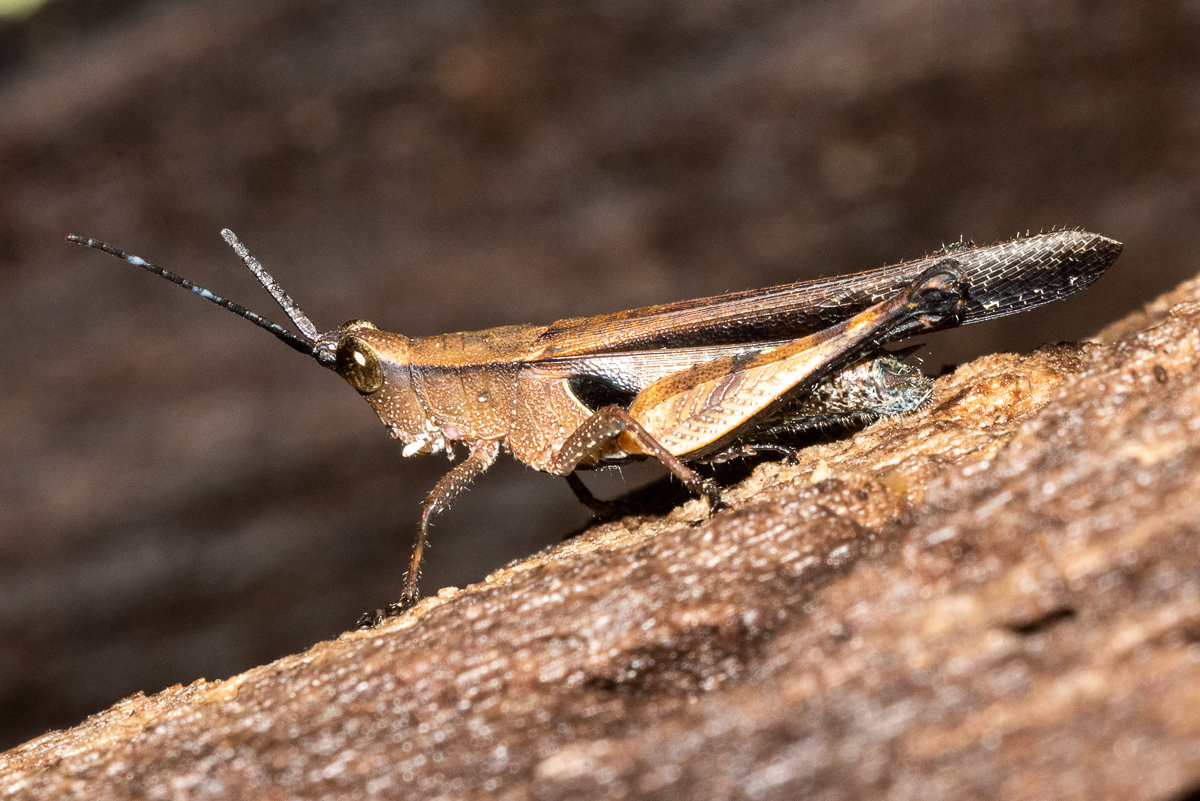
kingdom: Animalia
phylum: Arthropoda
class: Insecta
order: Orthoptera
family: Acrididae
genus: Xiphiola
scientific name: Xiphiola cyanoptera
